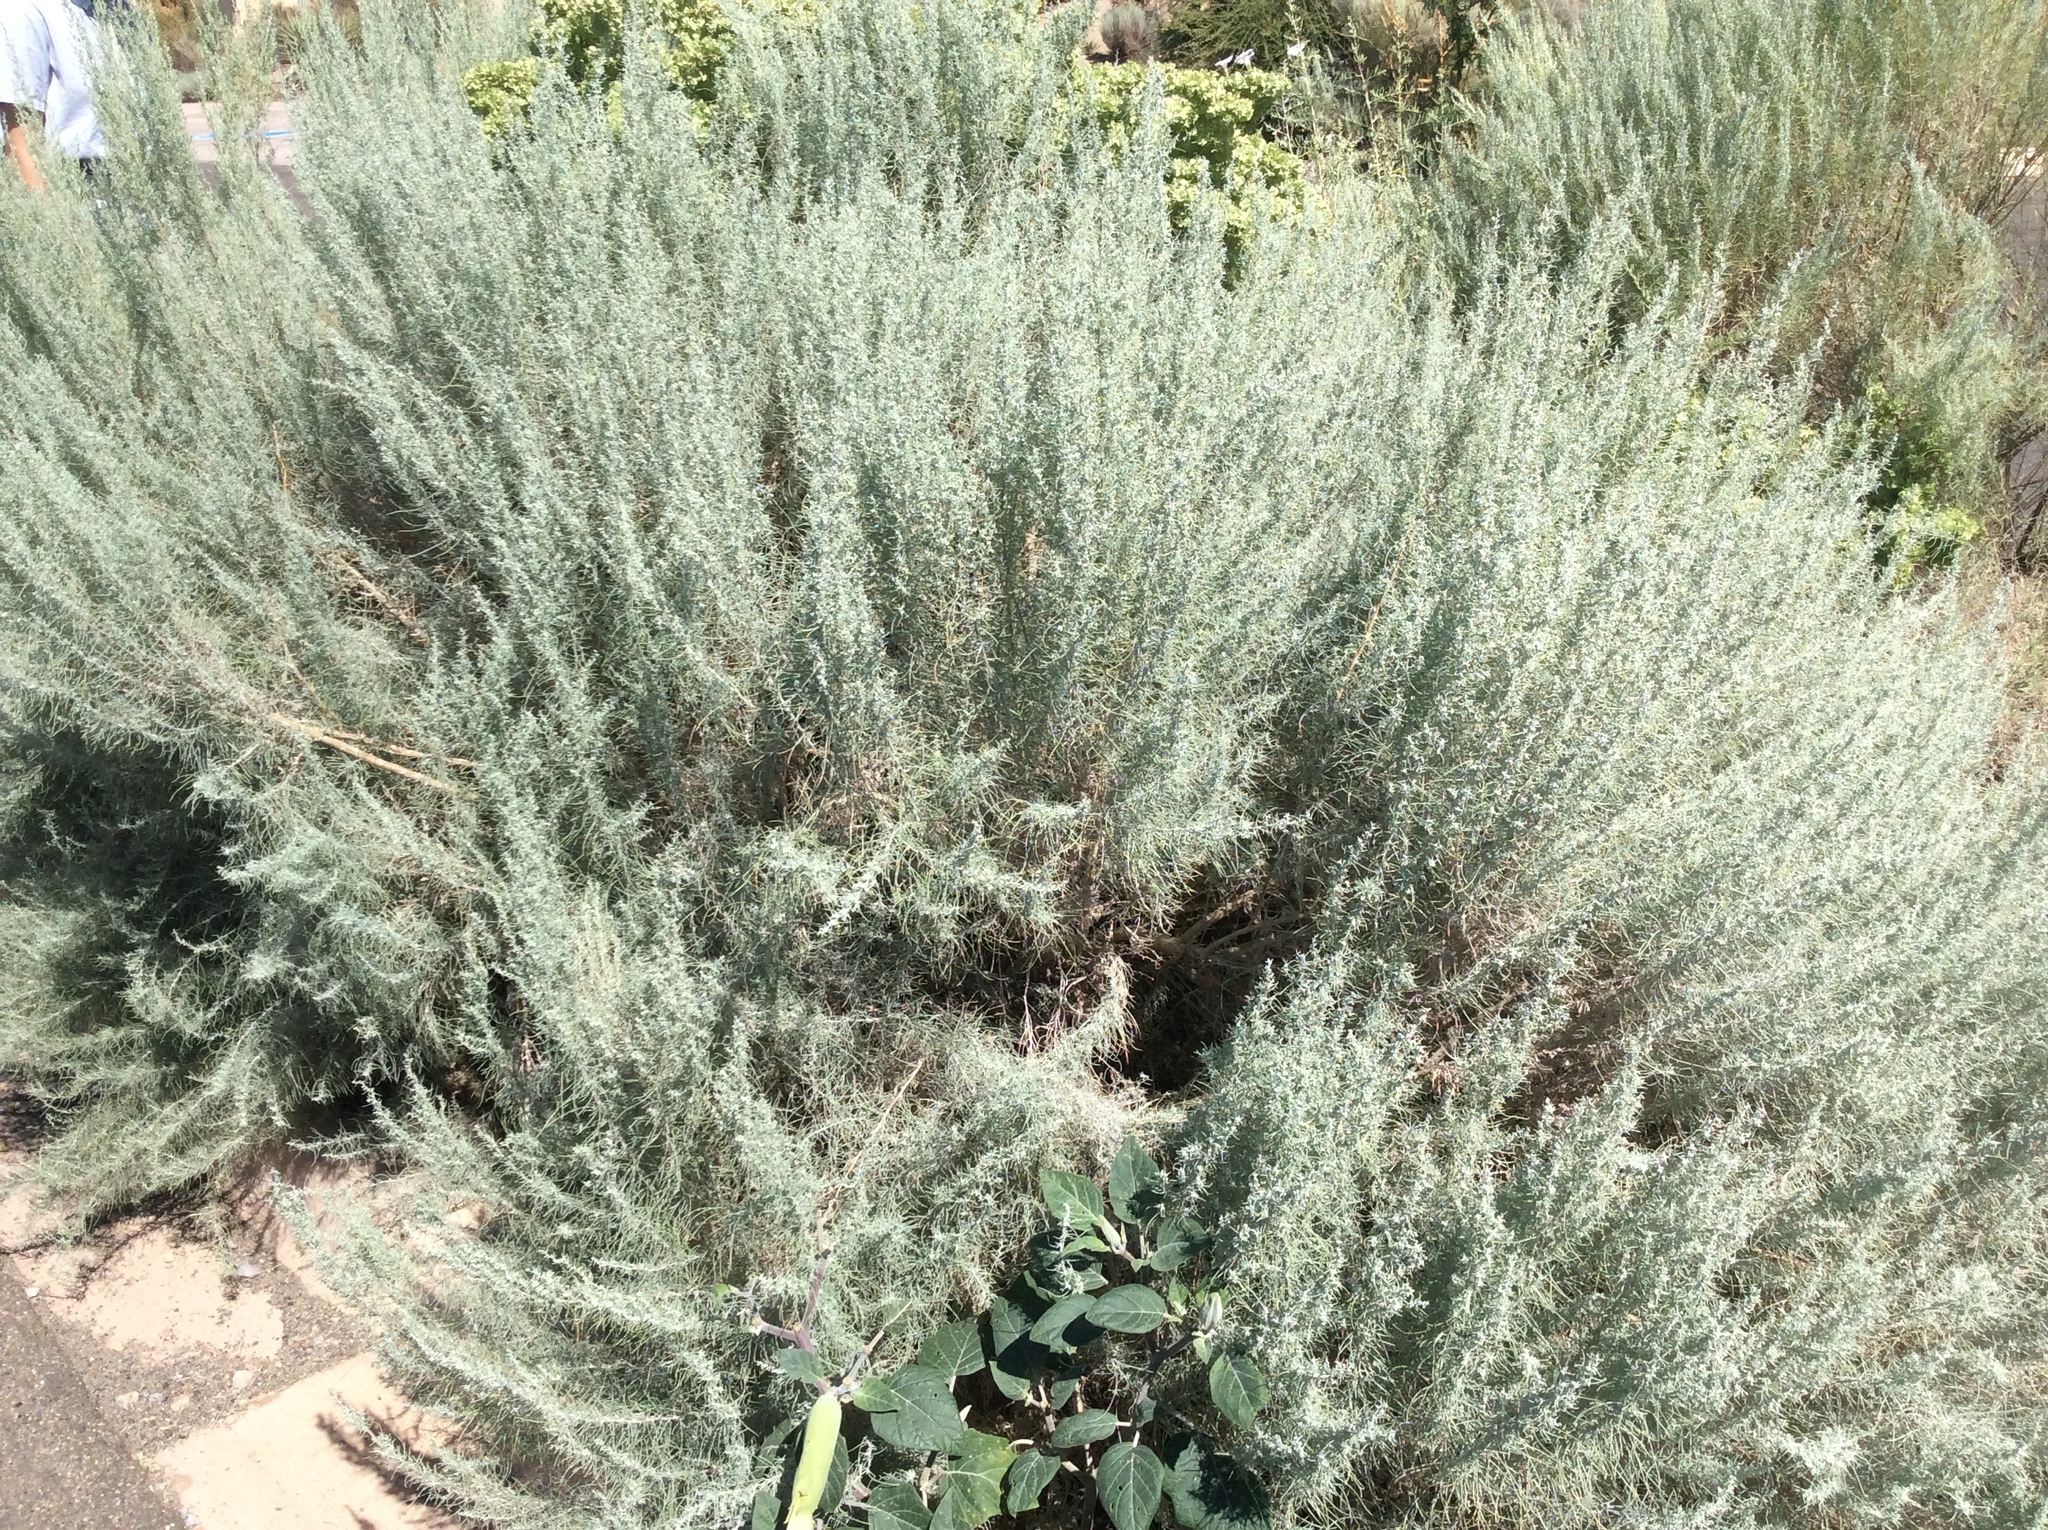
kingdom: Plantae
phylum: Tracheophyta
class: Magnoliopsida
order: Asterales
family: Asteraceae
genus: Artemisia
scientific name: Artemisia filifolia
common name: Sand-sage
